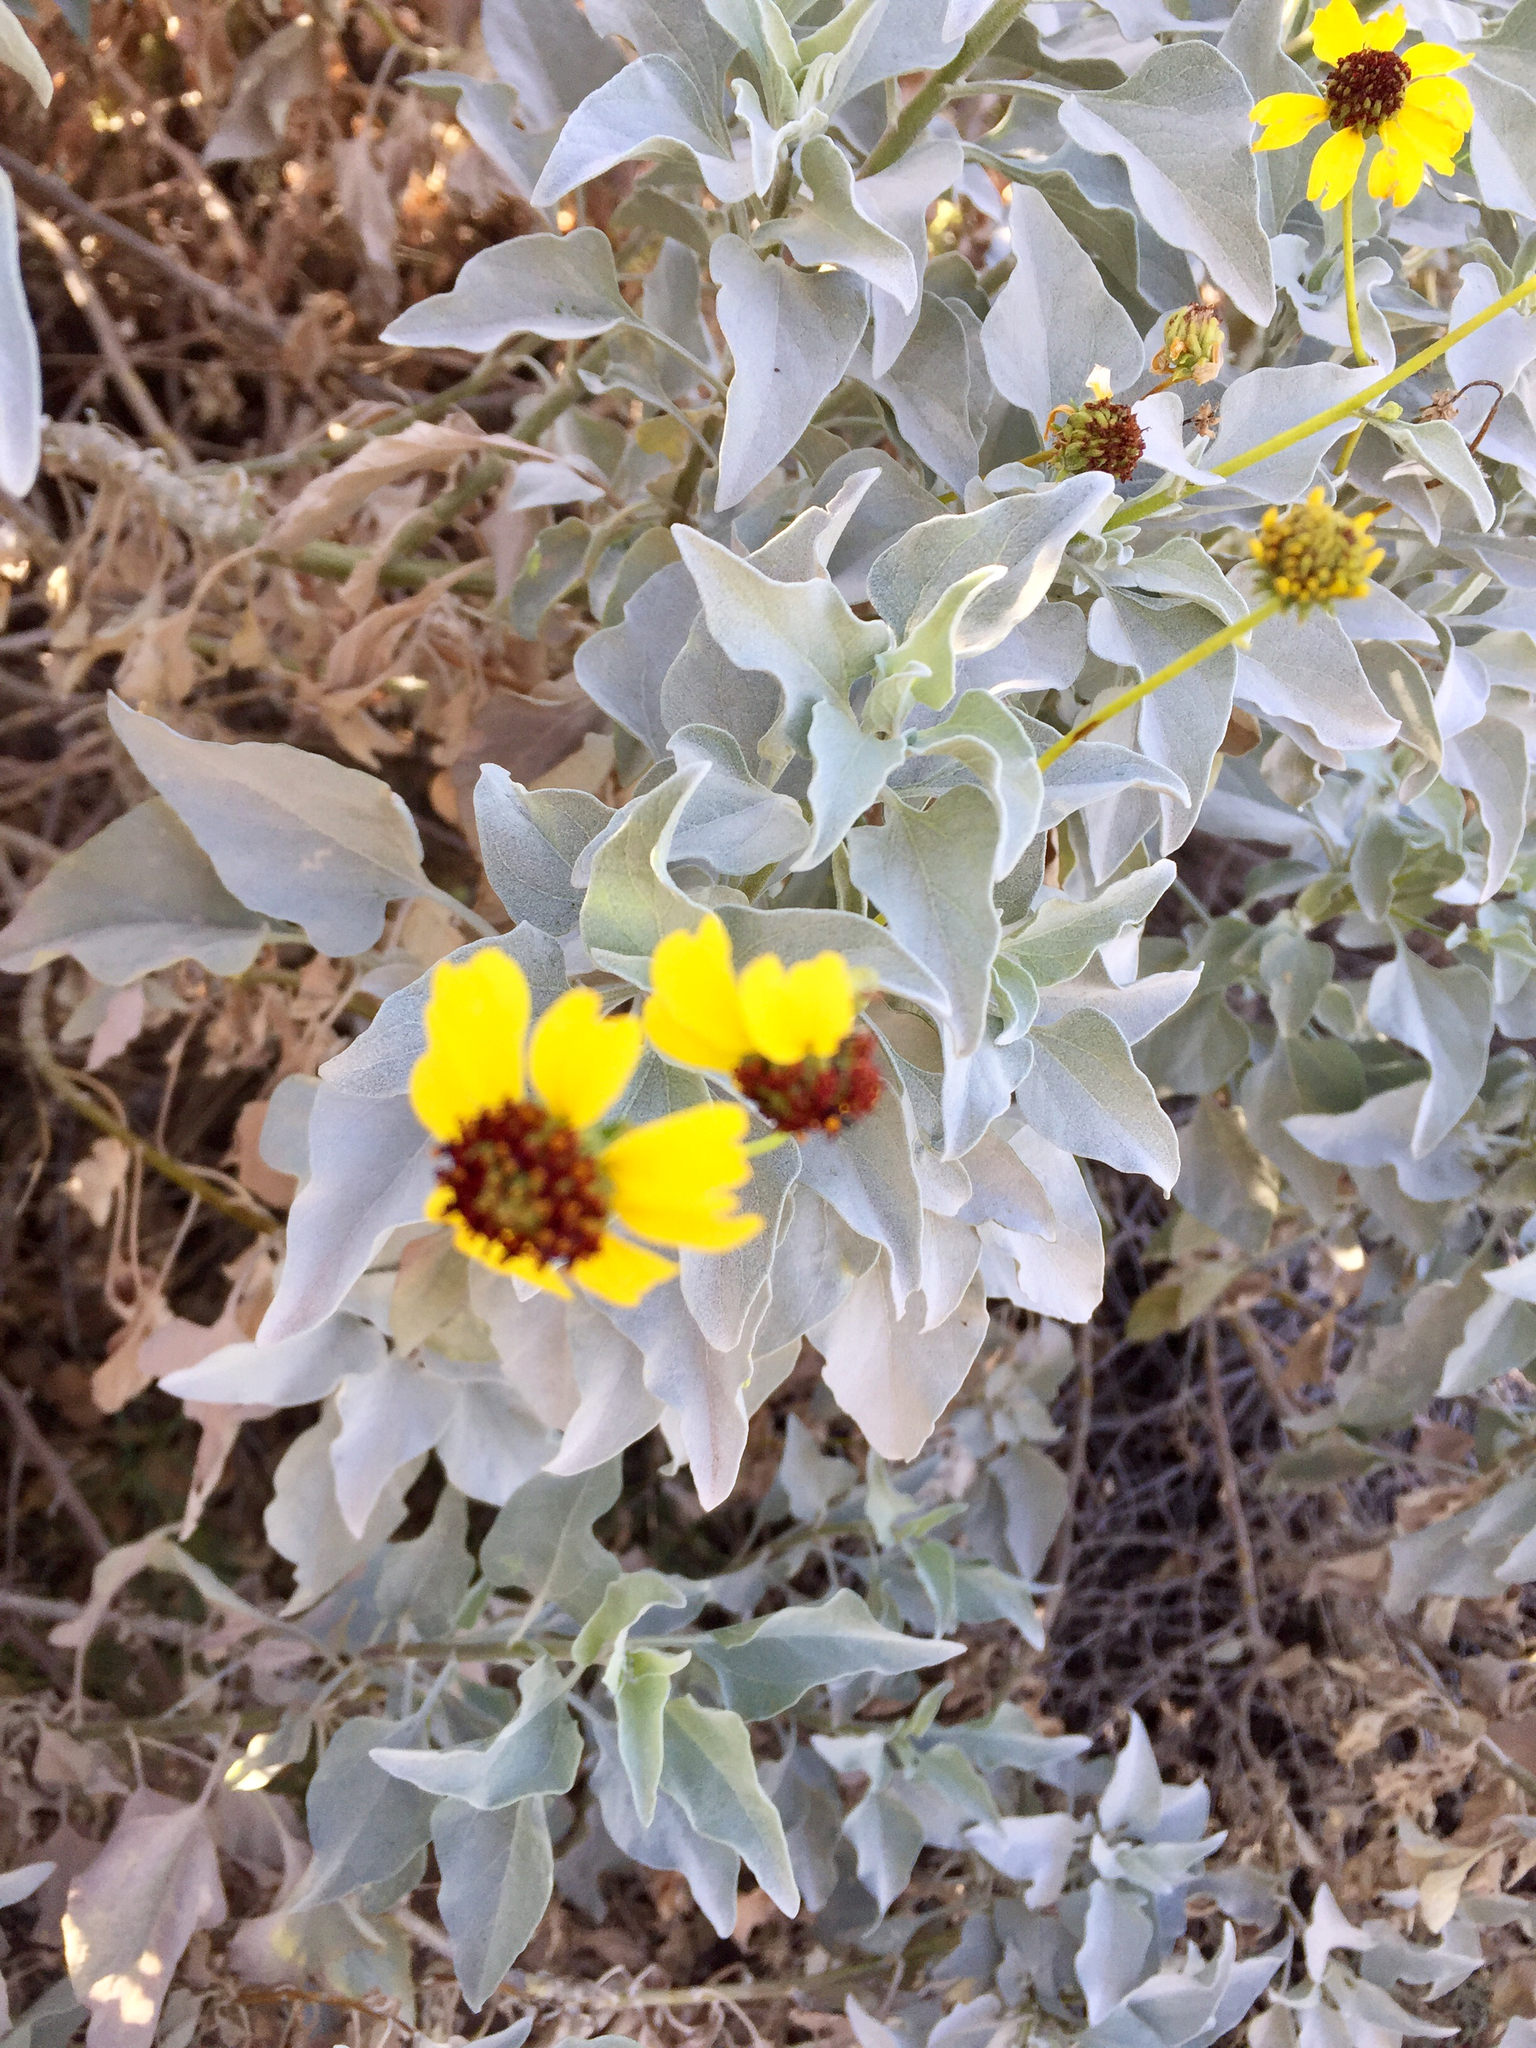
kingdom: Plantae
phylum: Tracheophyta
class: Magnoliopsida
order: Asterales
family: Asteraceae
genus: Encelia
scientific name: Encelia farinosa
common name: Brittlebush
